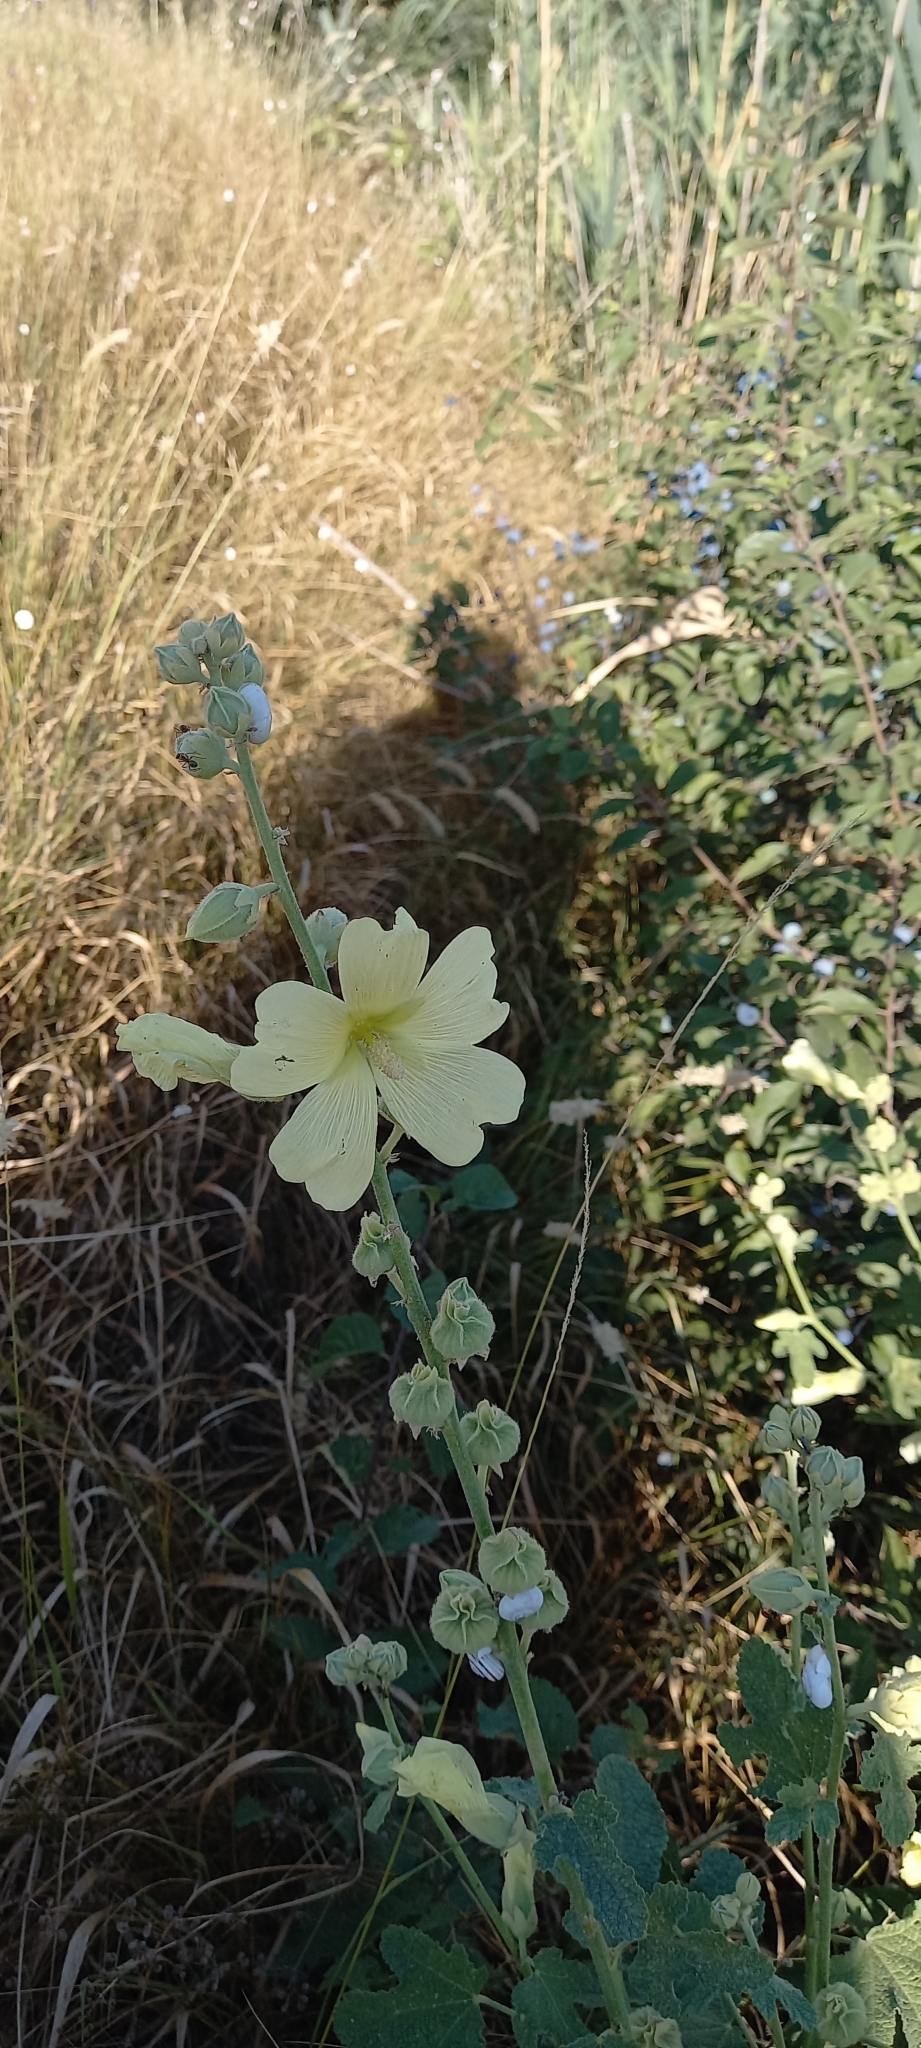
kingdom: Plantae
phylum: Tracheophyta
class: Magnoliopsida
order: Malvales
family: Malvaceae
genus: Alcea
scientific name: Alcea rugosa
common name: Russian hollyhock
